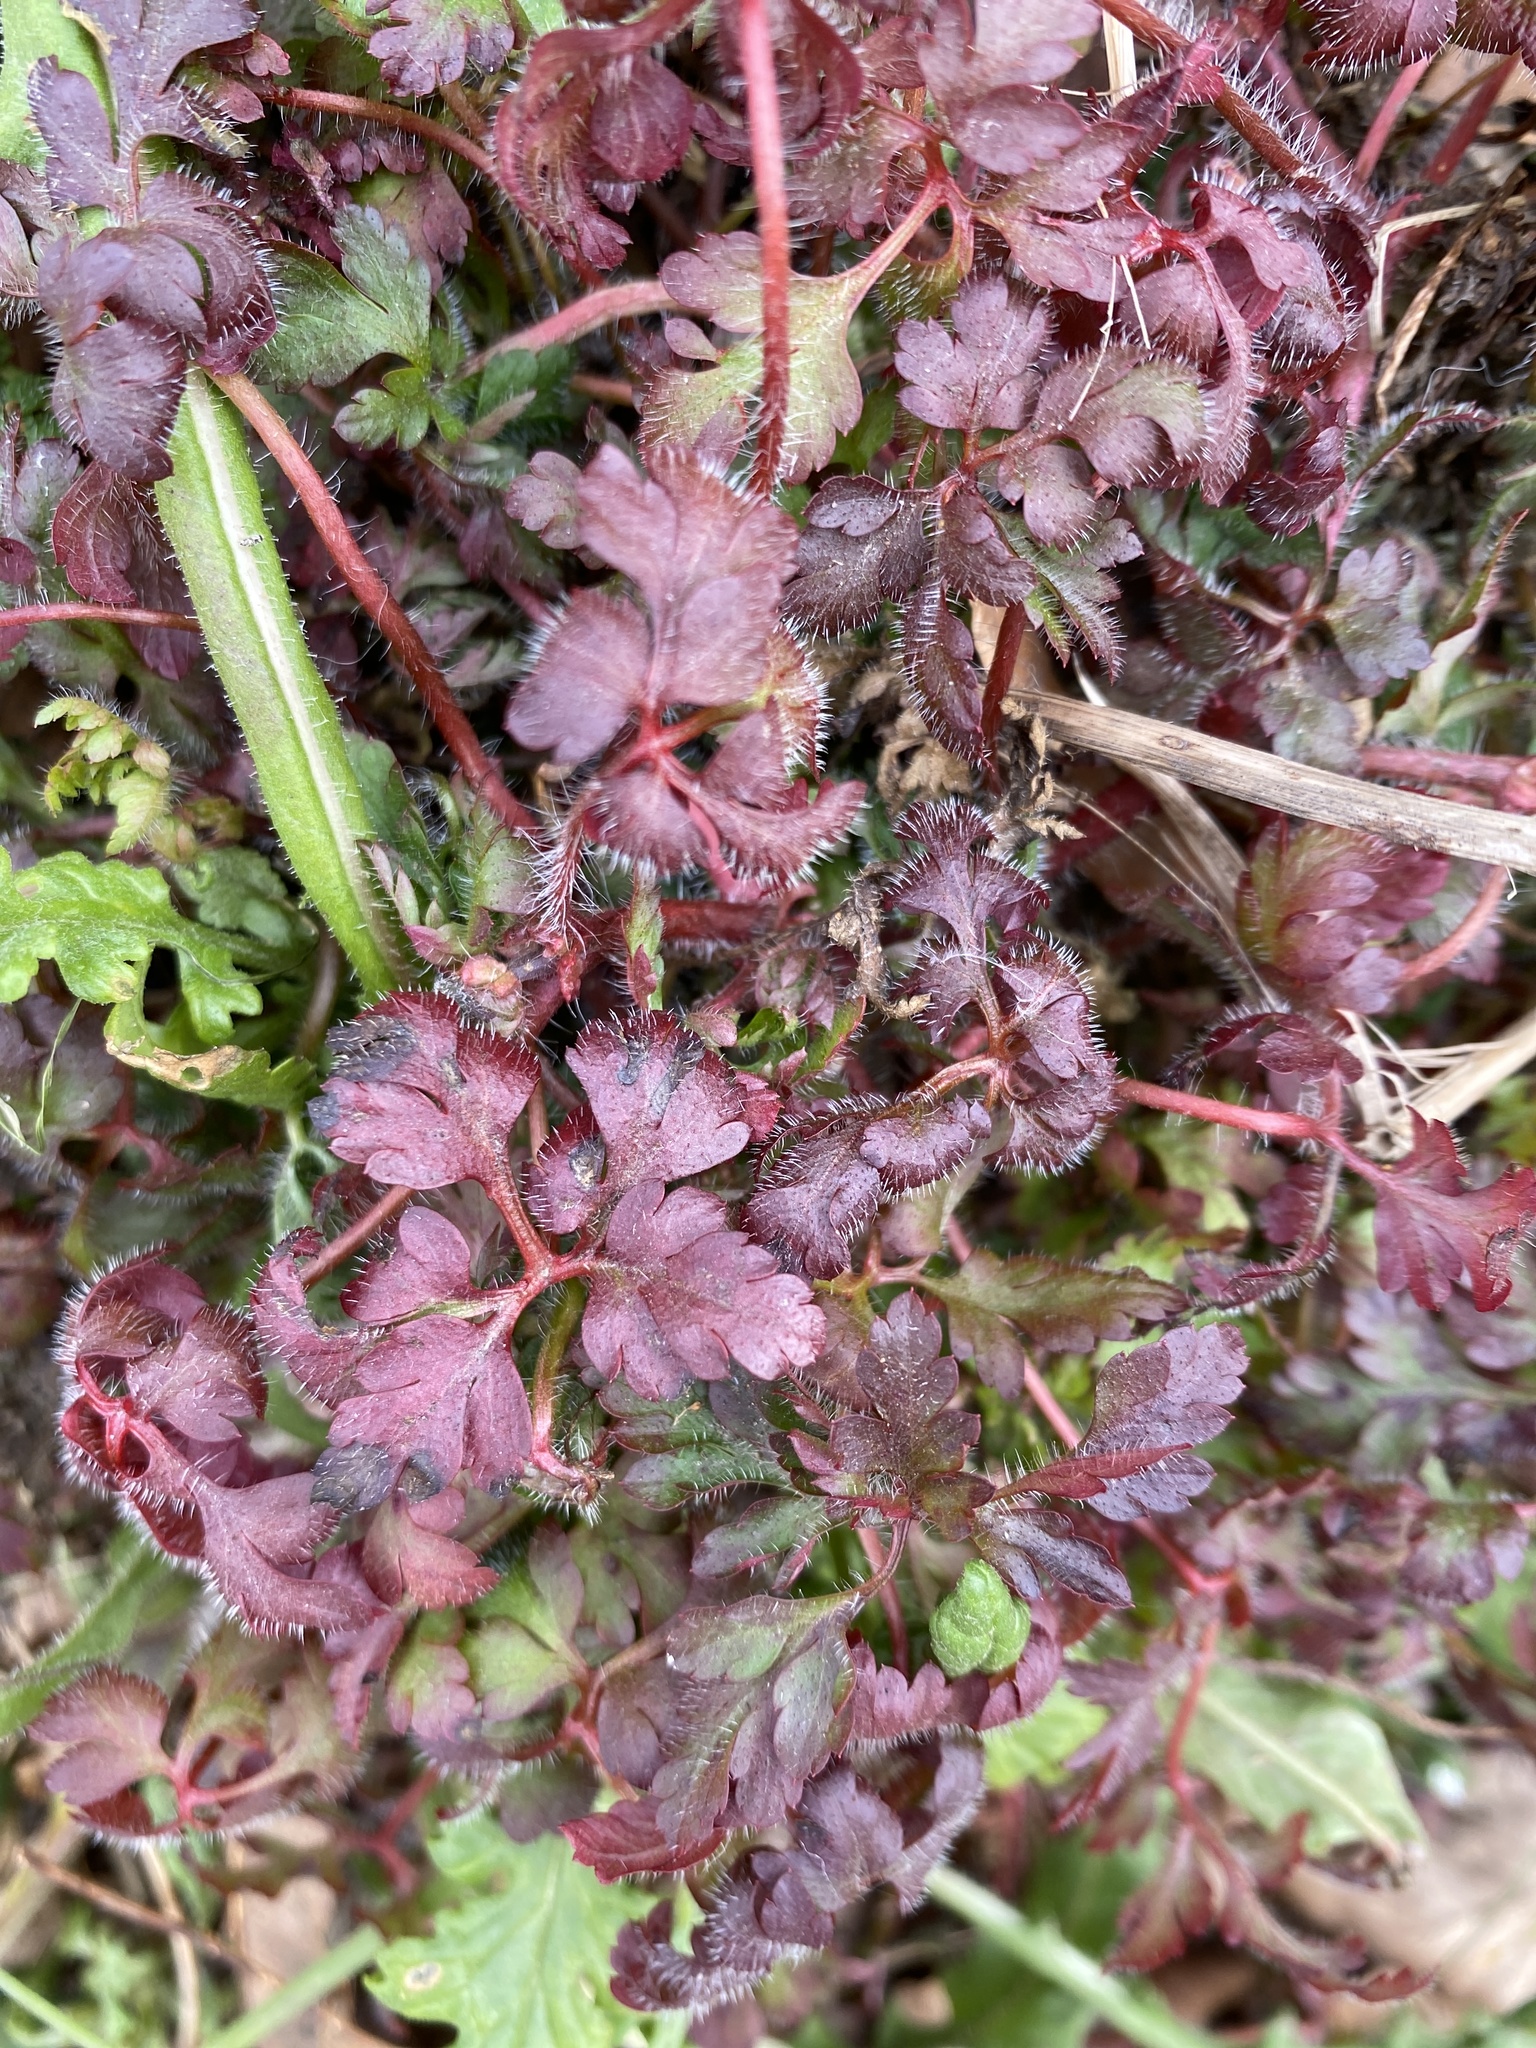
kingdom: Plantae
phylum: Tracheophyta
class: Magnoliopsida
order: Geraniales
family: Geraniaceae
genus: Geranium
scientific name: Geranium robertianum
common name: Herb-robert
